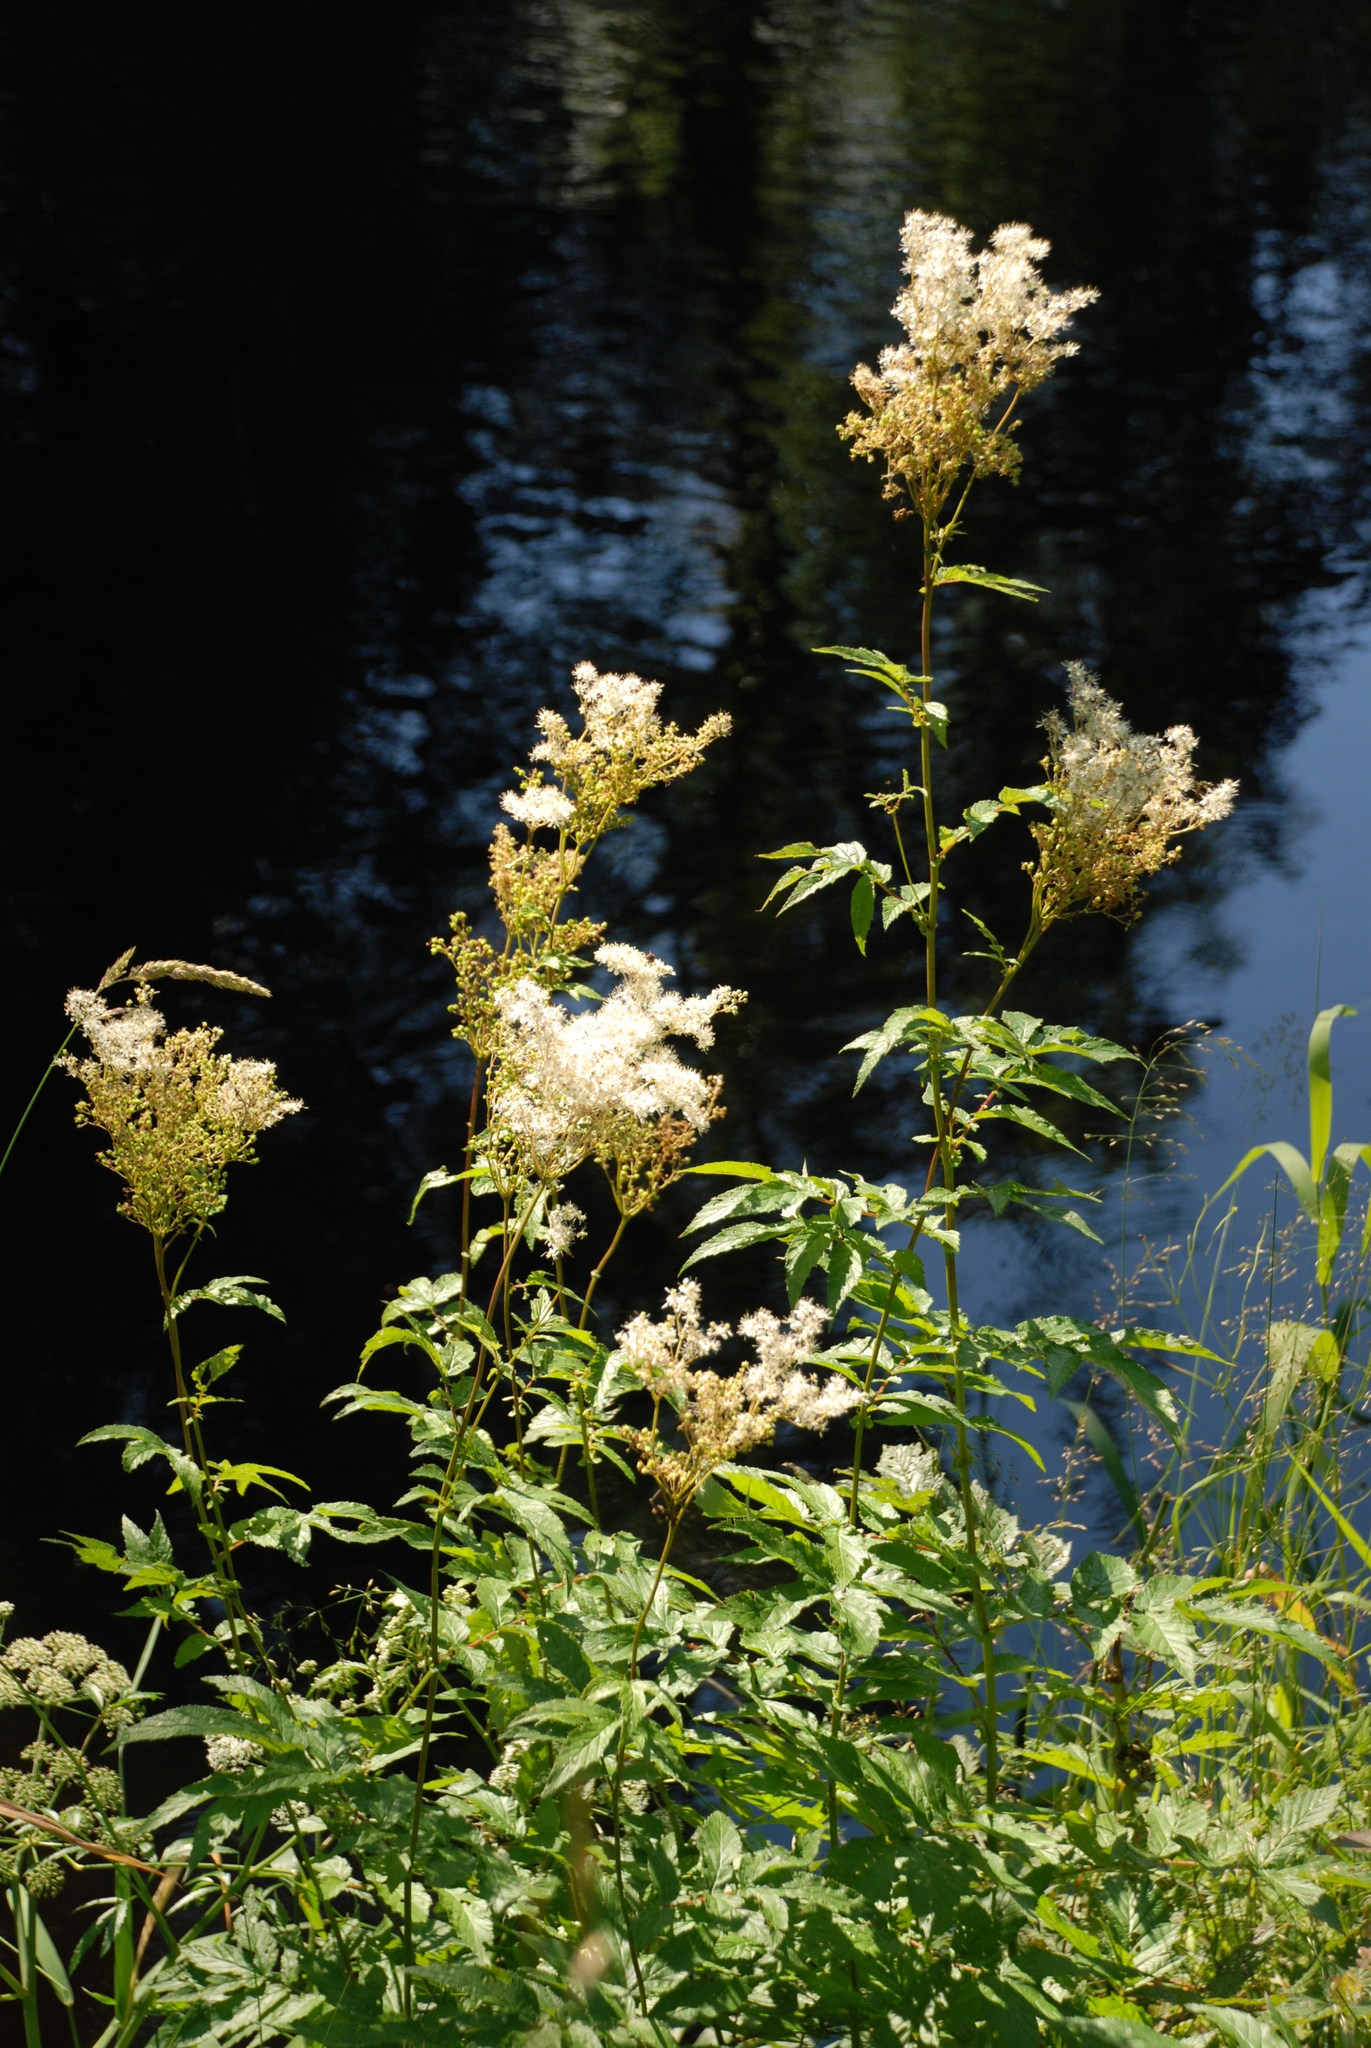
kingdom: Plantae
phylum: Tracheophyta
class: Magnoliopsida
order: Rosales
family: Rosaceae
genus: Filipendula
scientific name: Filipendula ulmaria
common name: Meadowsweet
